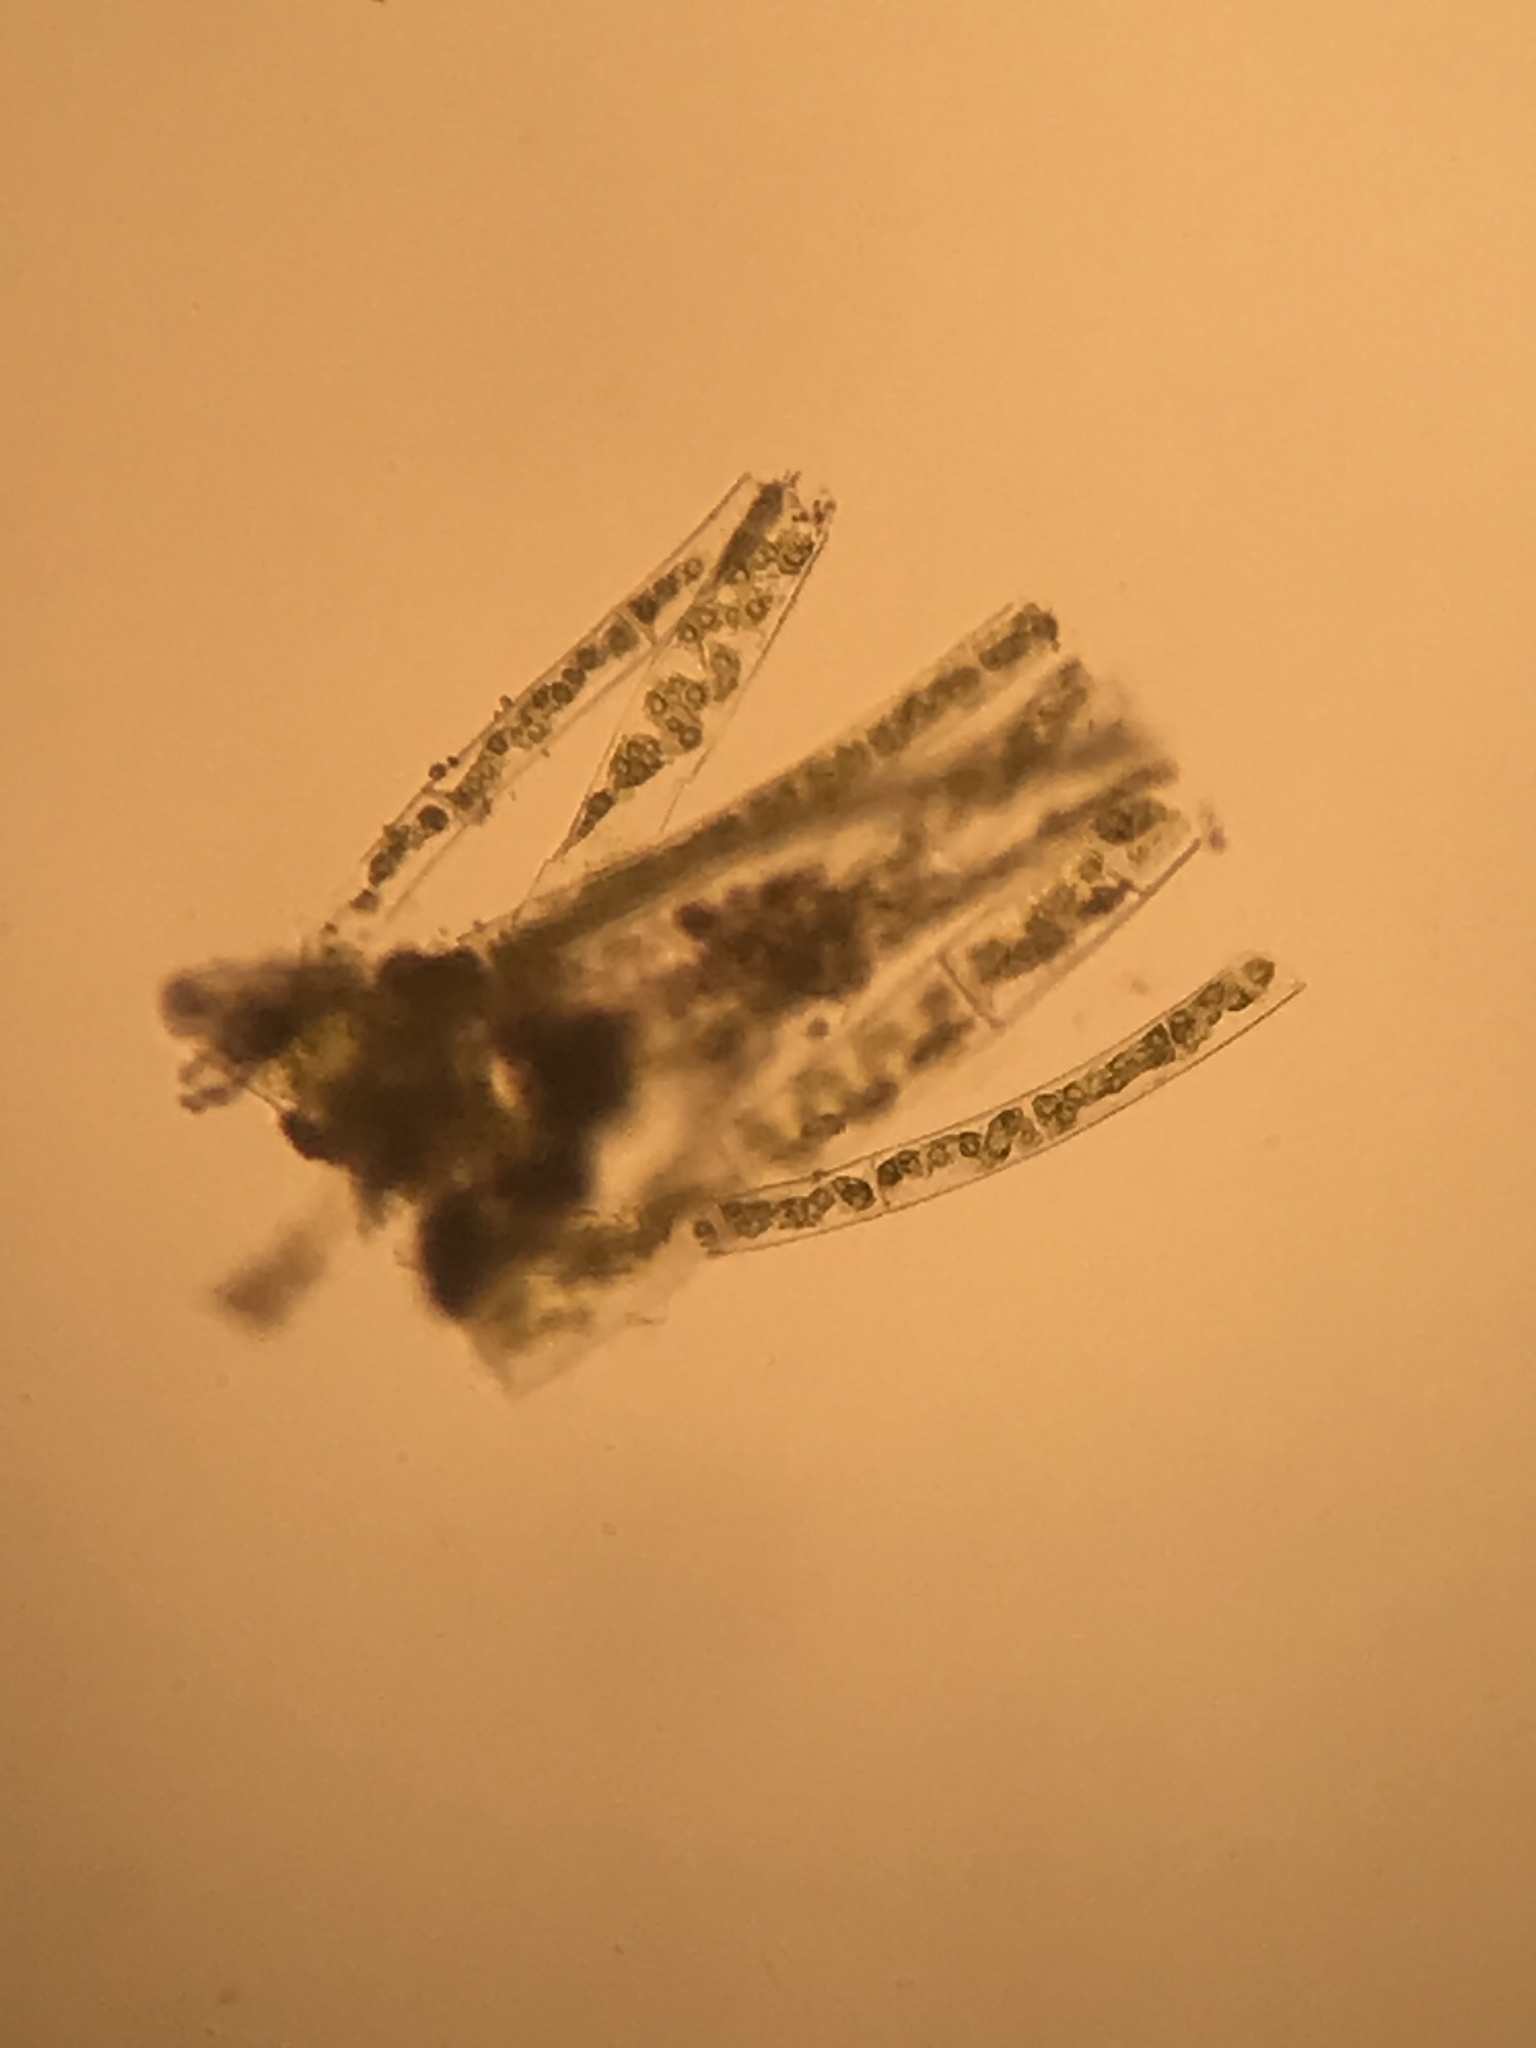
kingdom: Plantae
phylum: Charophyta
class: Zygnematophyceae
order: Zygnematales
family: Zygnemataceae
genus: Spirogyra
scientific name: Spirogyra
